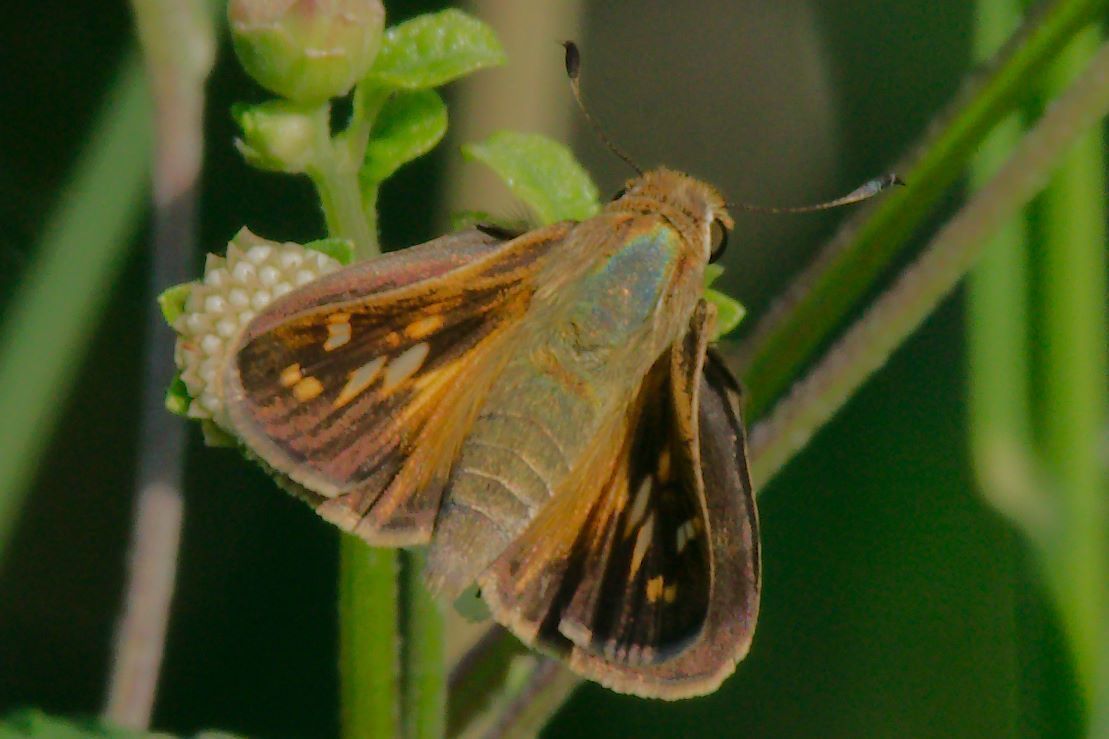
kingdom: Animalia
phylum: Arthropoda
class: Insecta
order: Lepidoptera
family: Hesperiidae
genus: Atalopedes
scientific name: Atalopedes
